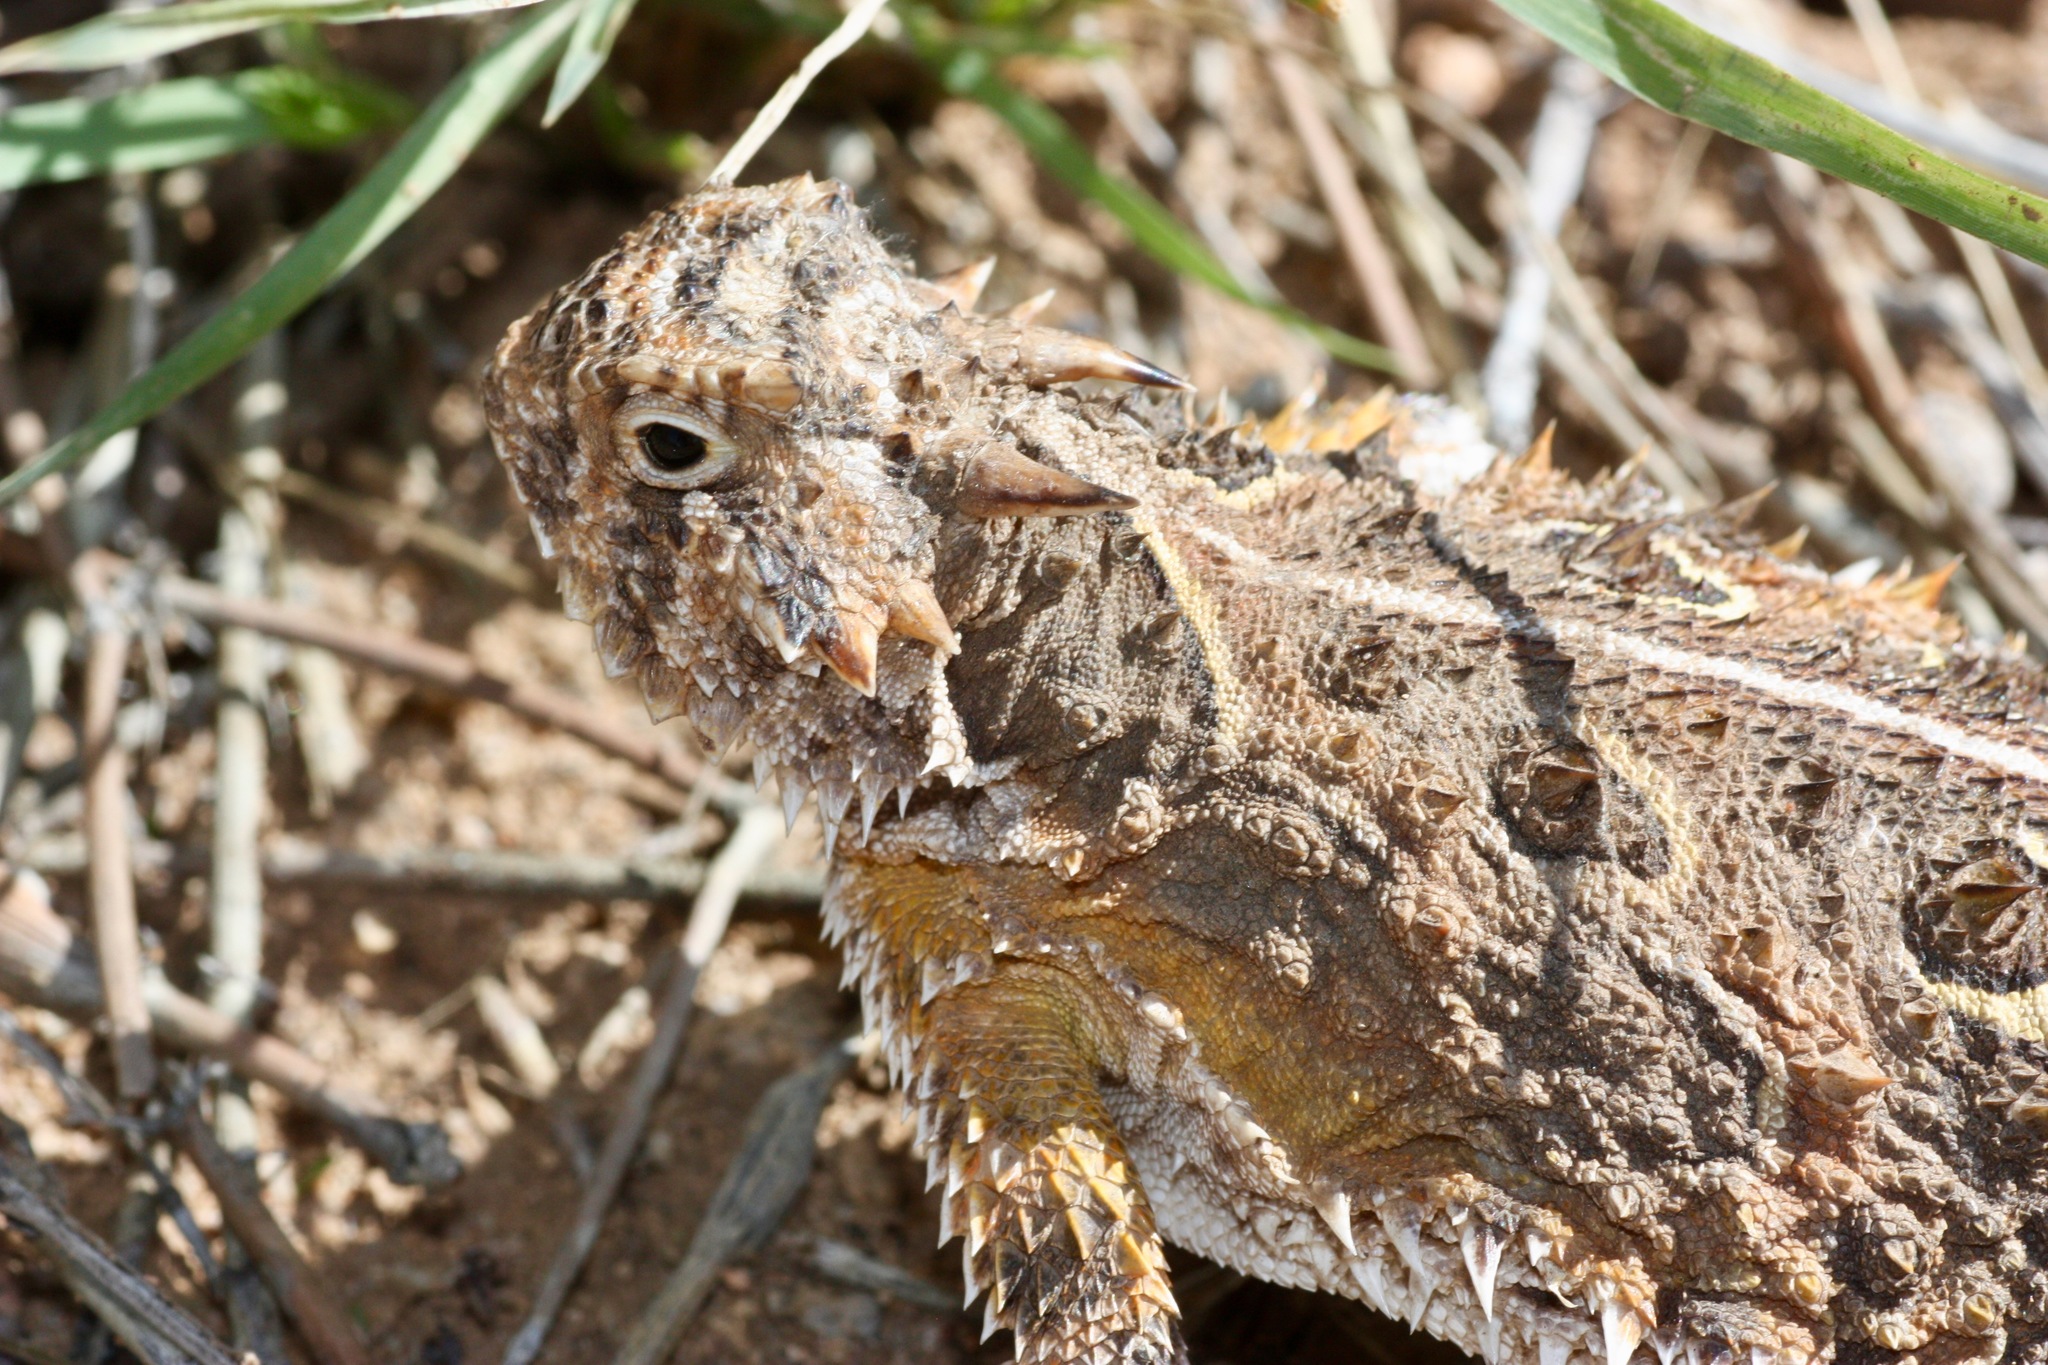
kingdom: Animalia
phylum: Chordata
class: Squamata
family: Phrynosomatidae
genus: Phrynosoma
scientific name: Phrynosoma cornutum
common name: Texas horned lizard
